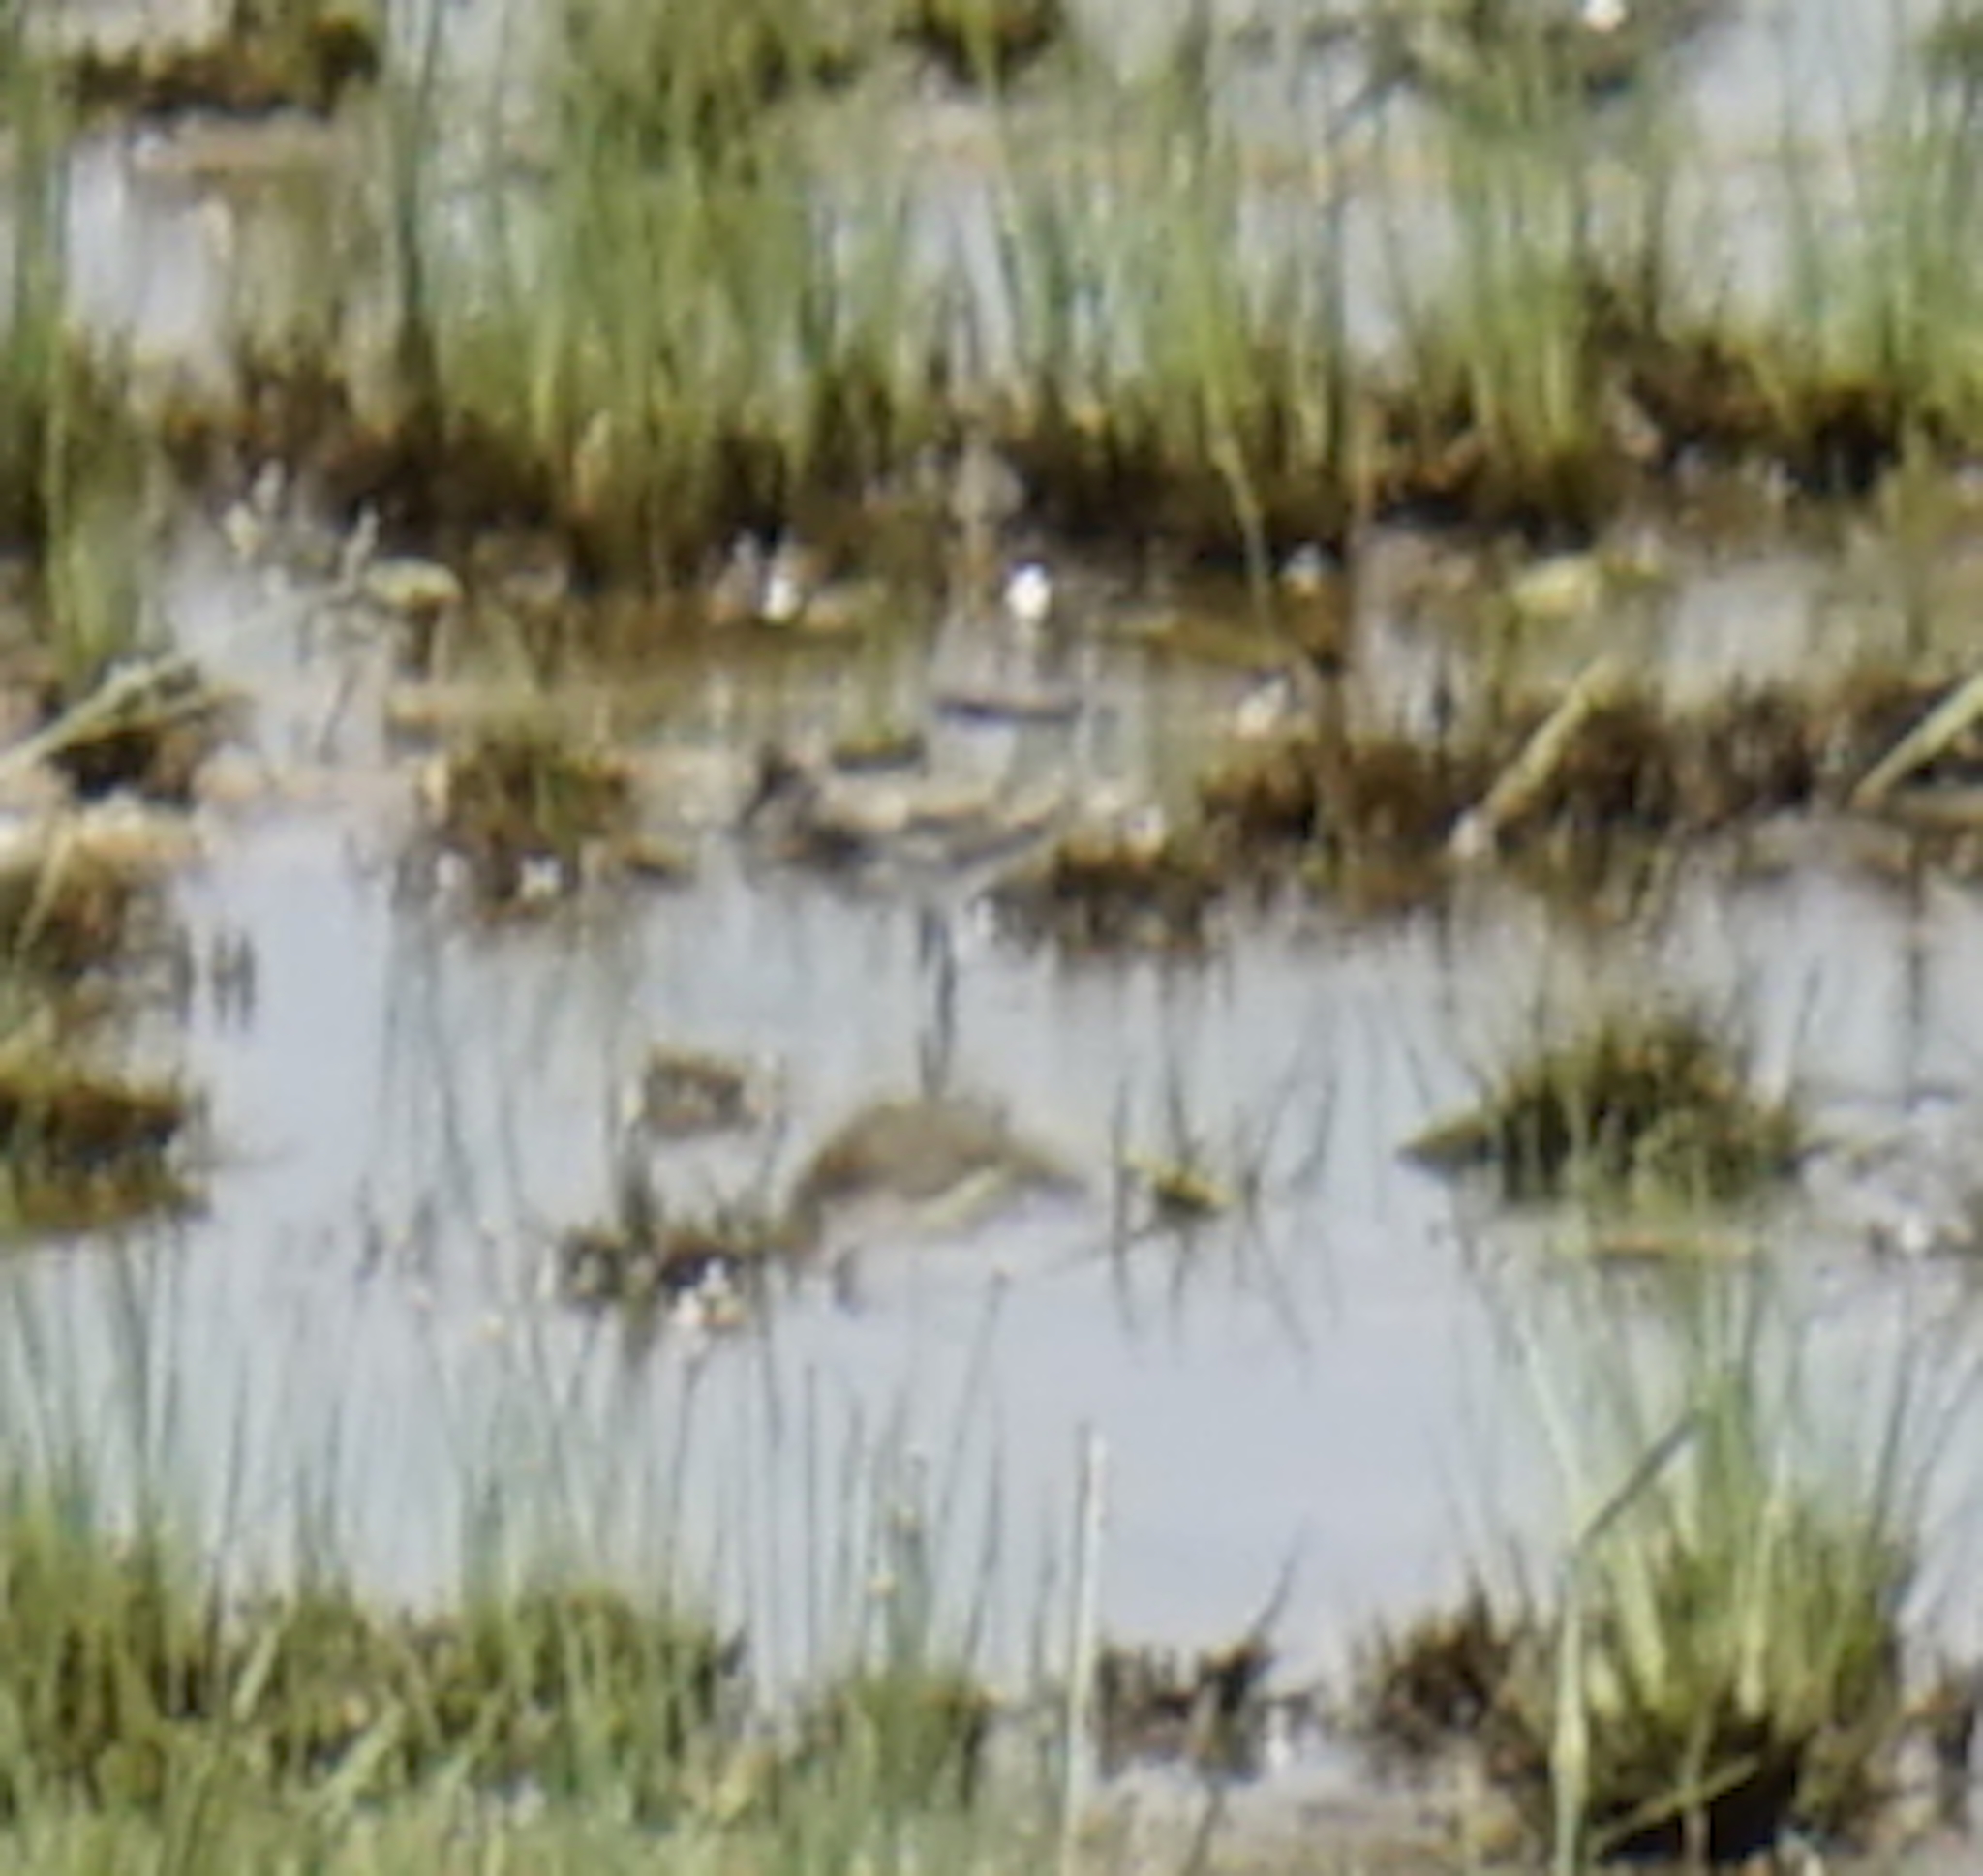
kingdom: Animalia
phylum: Chordata
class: Aves
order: Charadriiformes
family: Scolopacidae
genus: Calidris
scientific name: Calidris temminckii
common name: Temminck's stint
